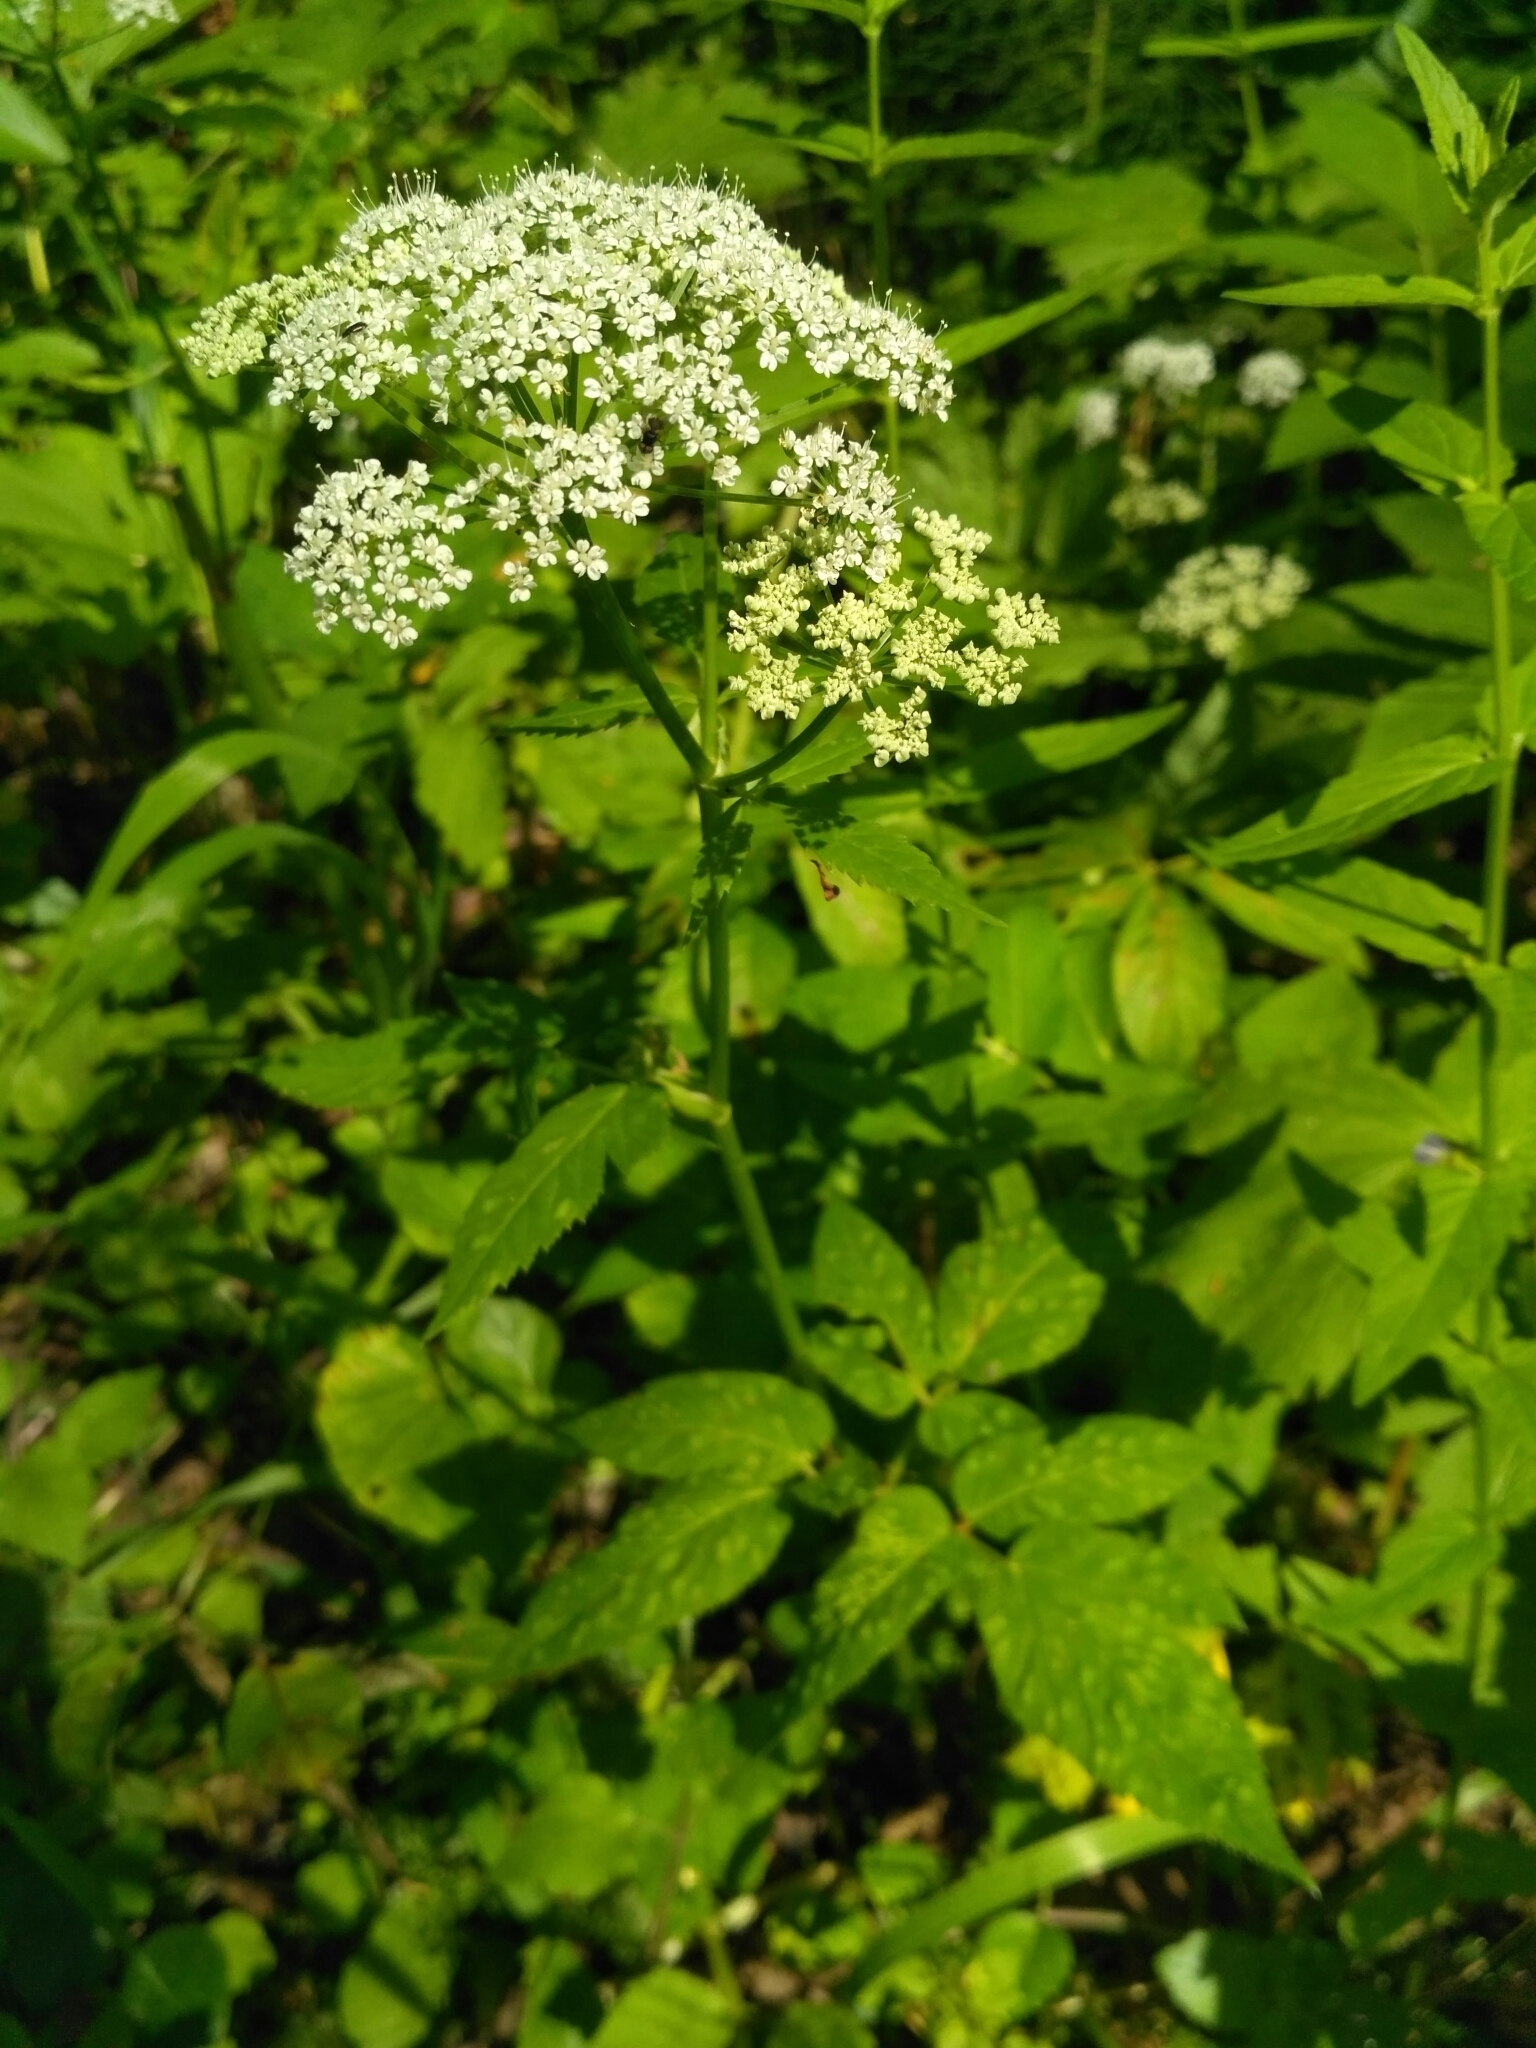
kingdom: Plantae
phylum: Tracheophyta
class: Magnoliopsida
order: Apiales
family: Apiaceae
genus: Aegopodium
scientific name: Aegopodium podagraria
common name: Ground-elder
